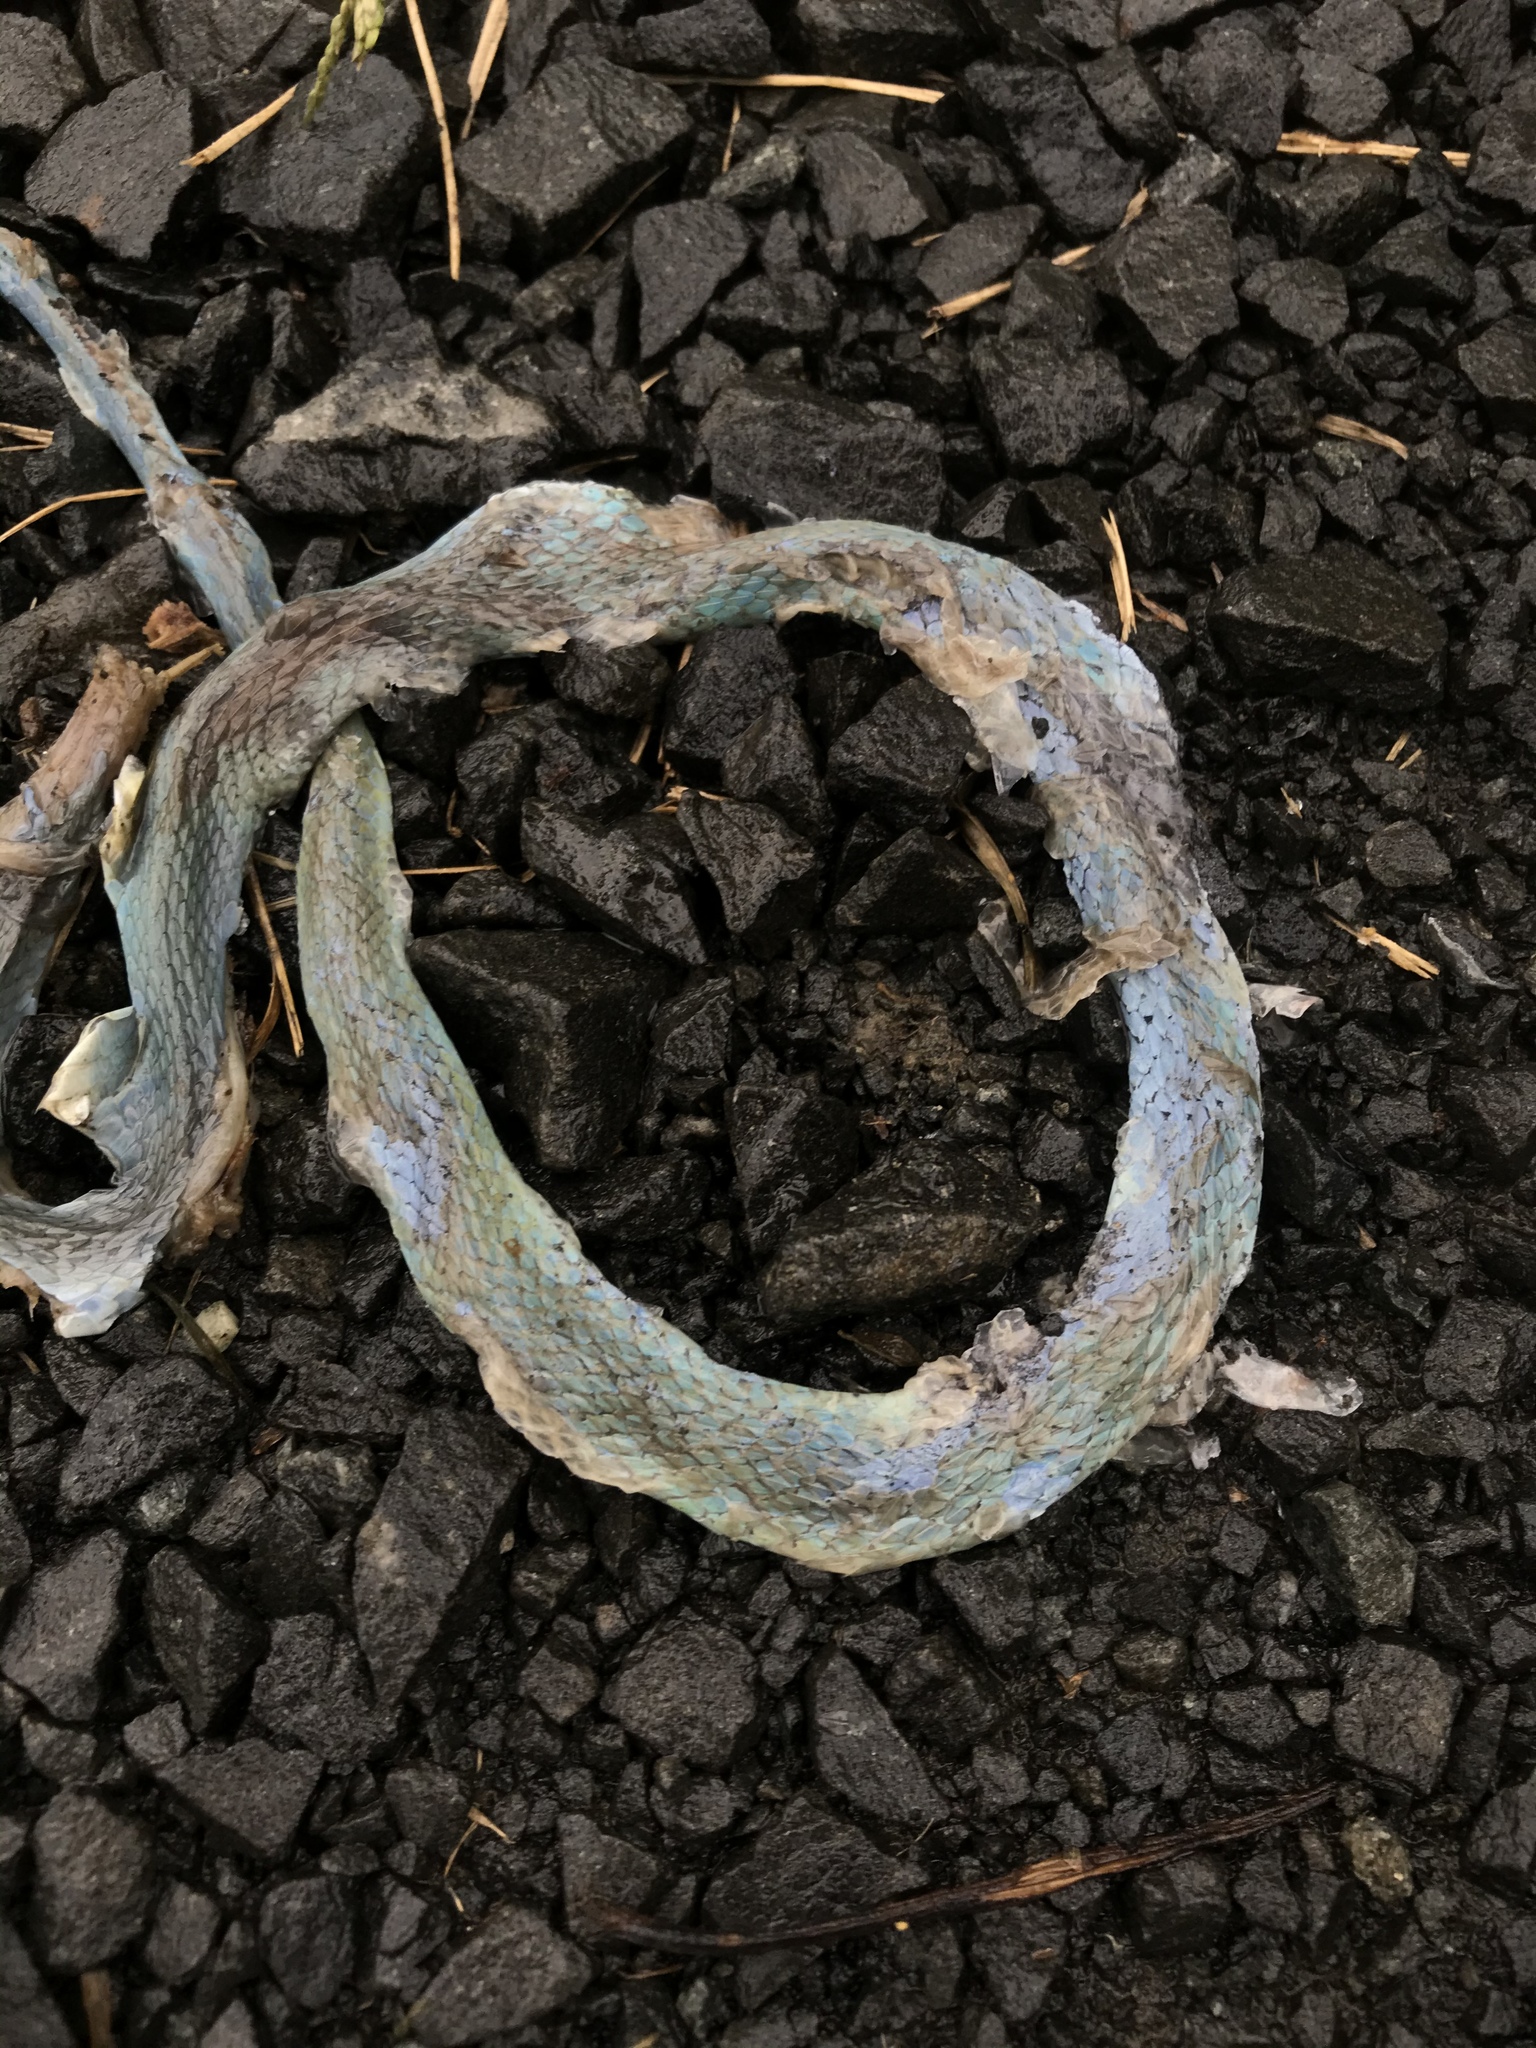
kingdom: Animalia
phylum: Chordata
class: Squamata
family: Colubridae
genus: Opheodrys
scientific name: Opheodrys aestivus
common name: Rough greensnake
